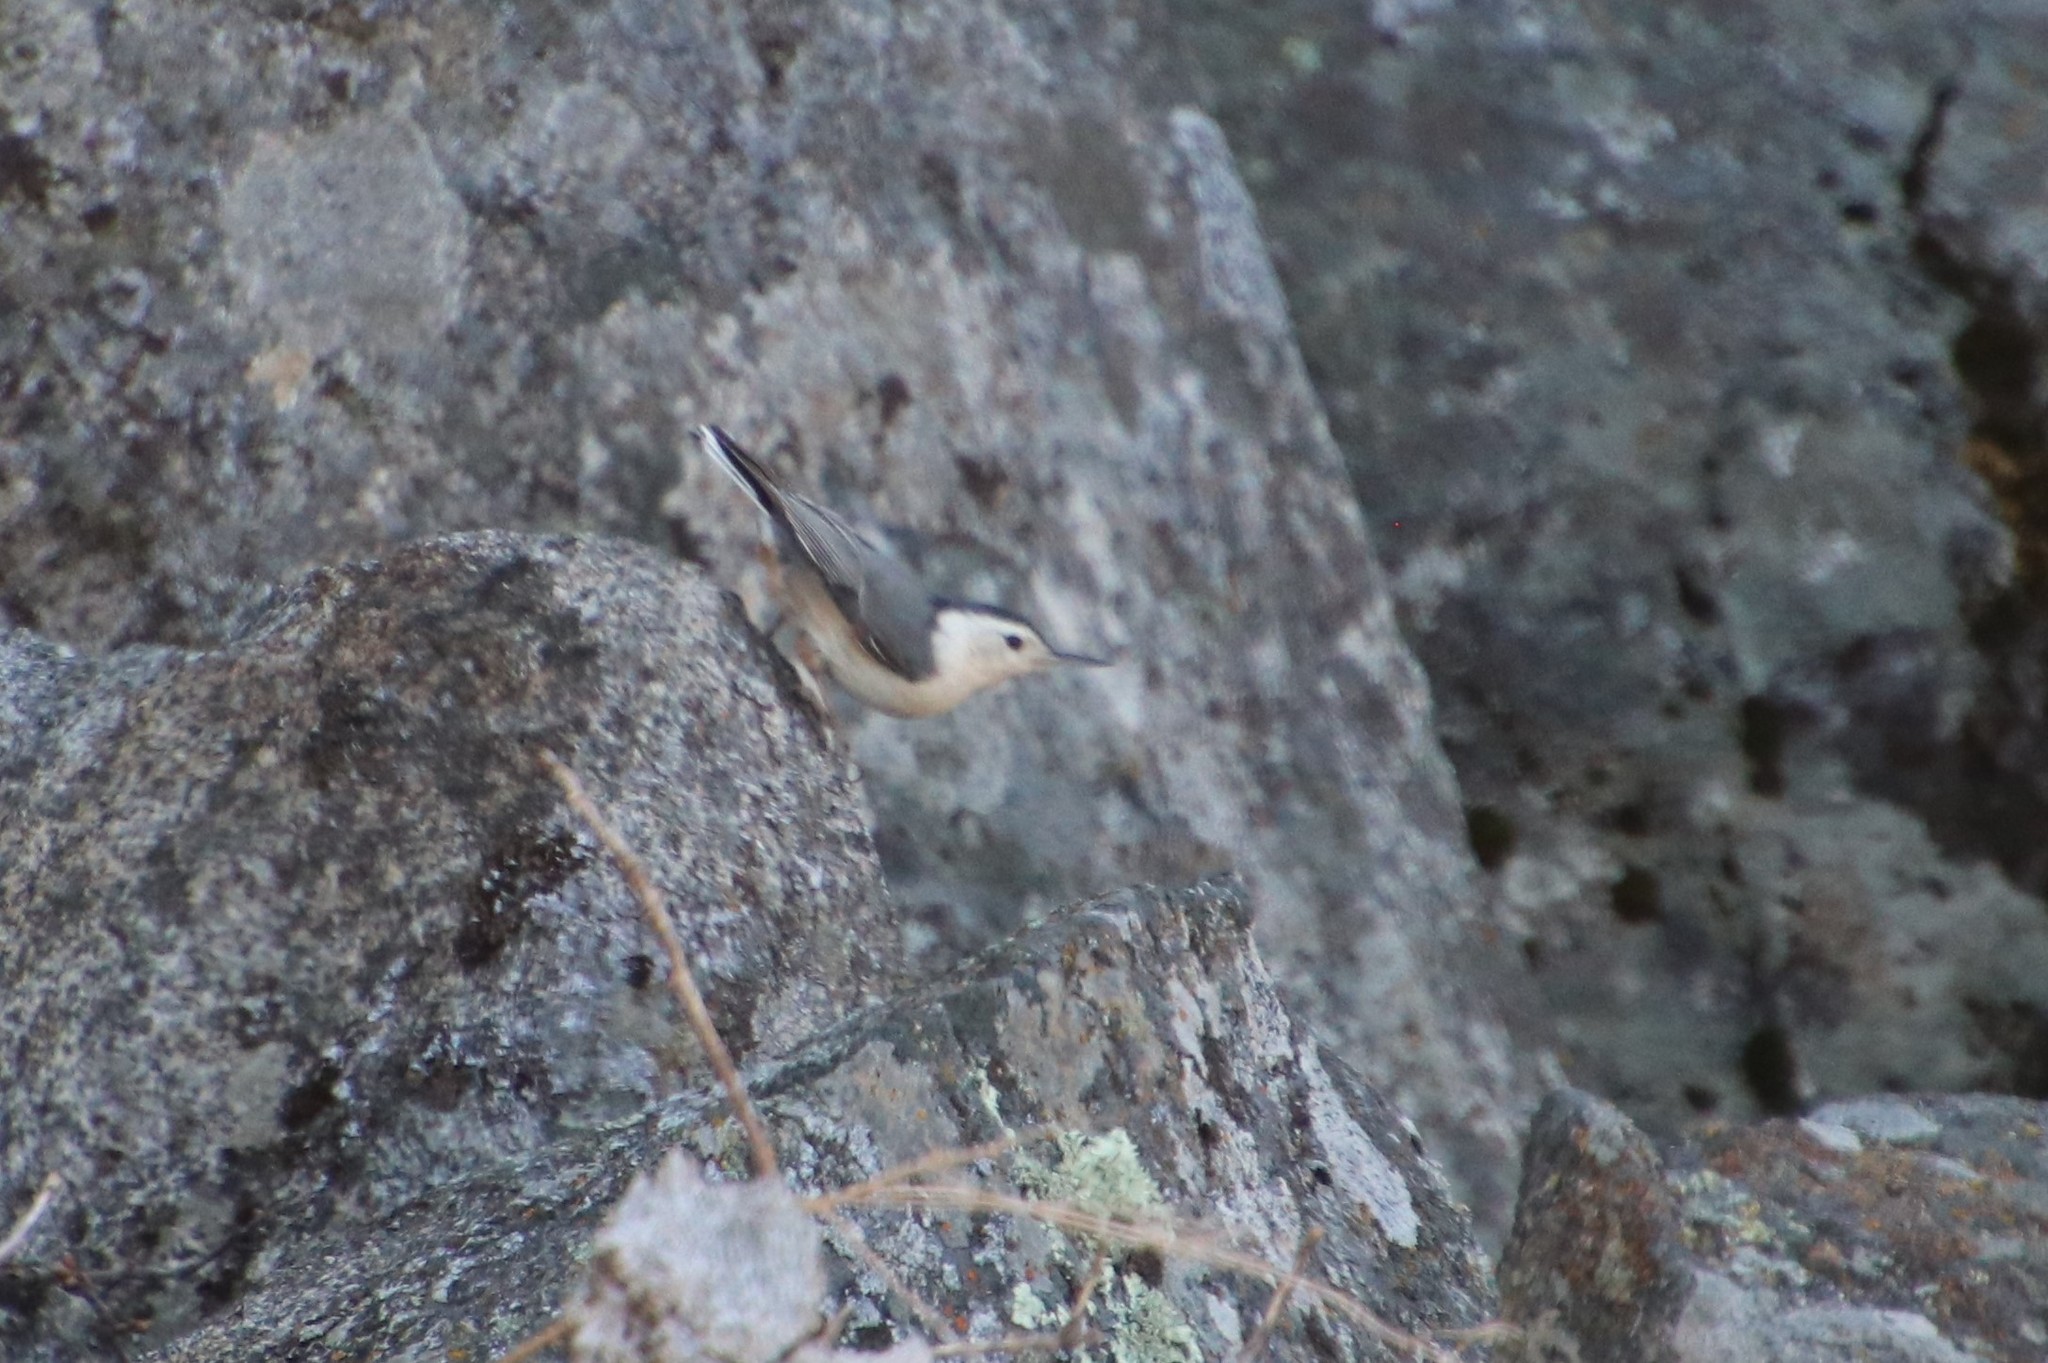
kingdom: Animalia
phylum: Chordata
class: Aves
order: Passeriformes
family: Sittidae
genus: Sitta
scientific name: Sitta carolinensis
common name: White-breasted nuthatch
